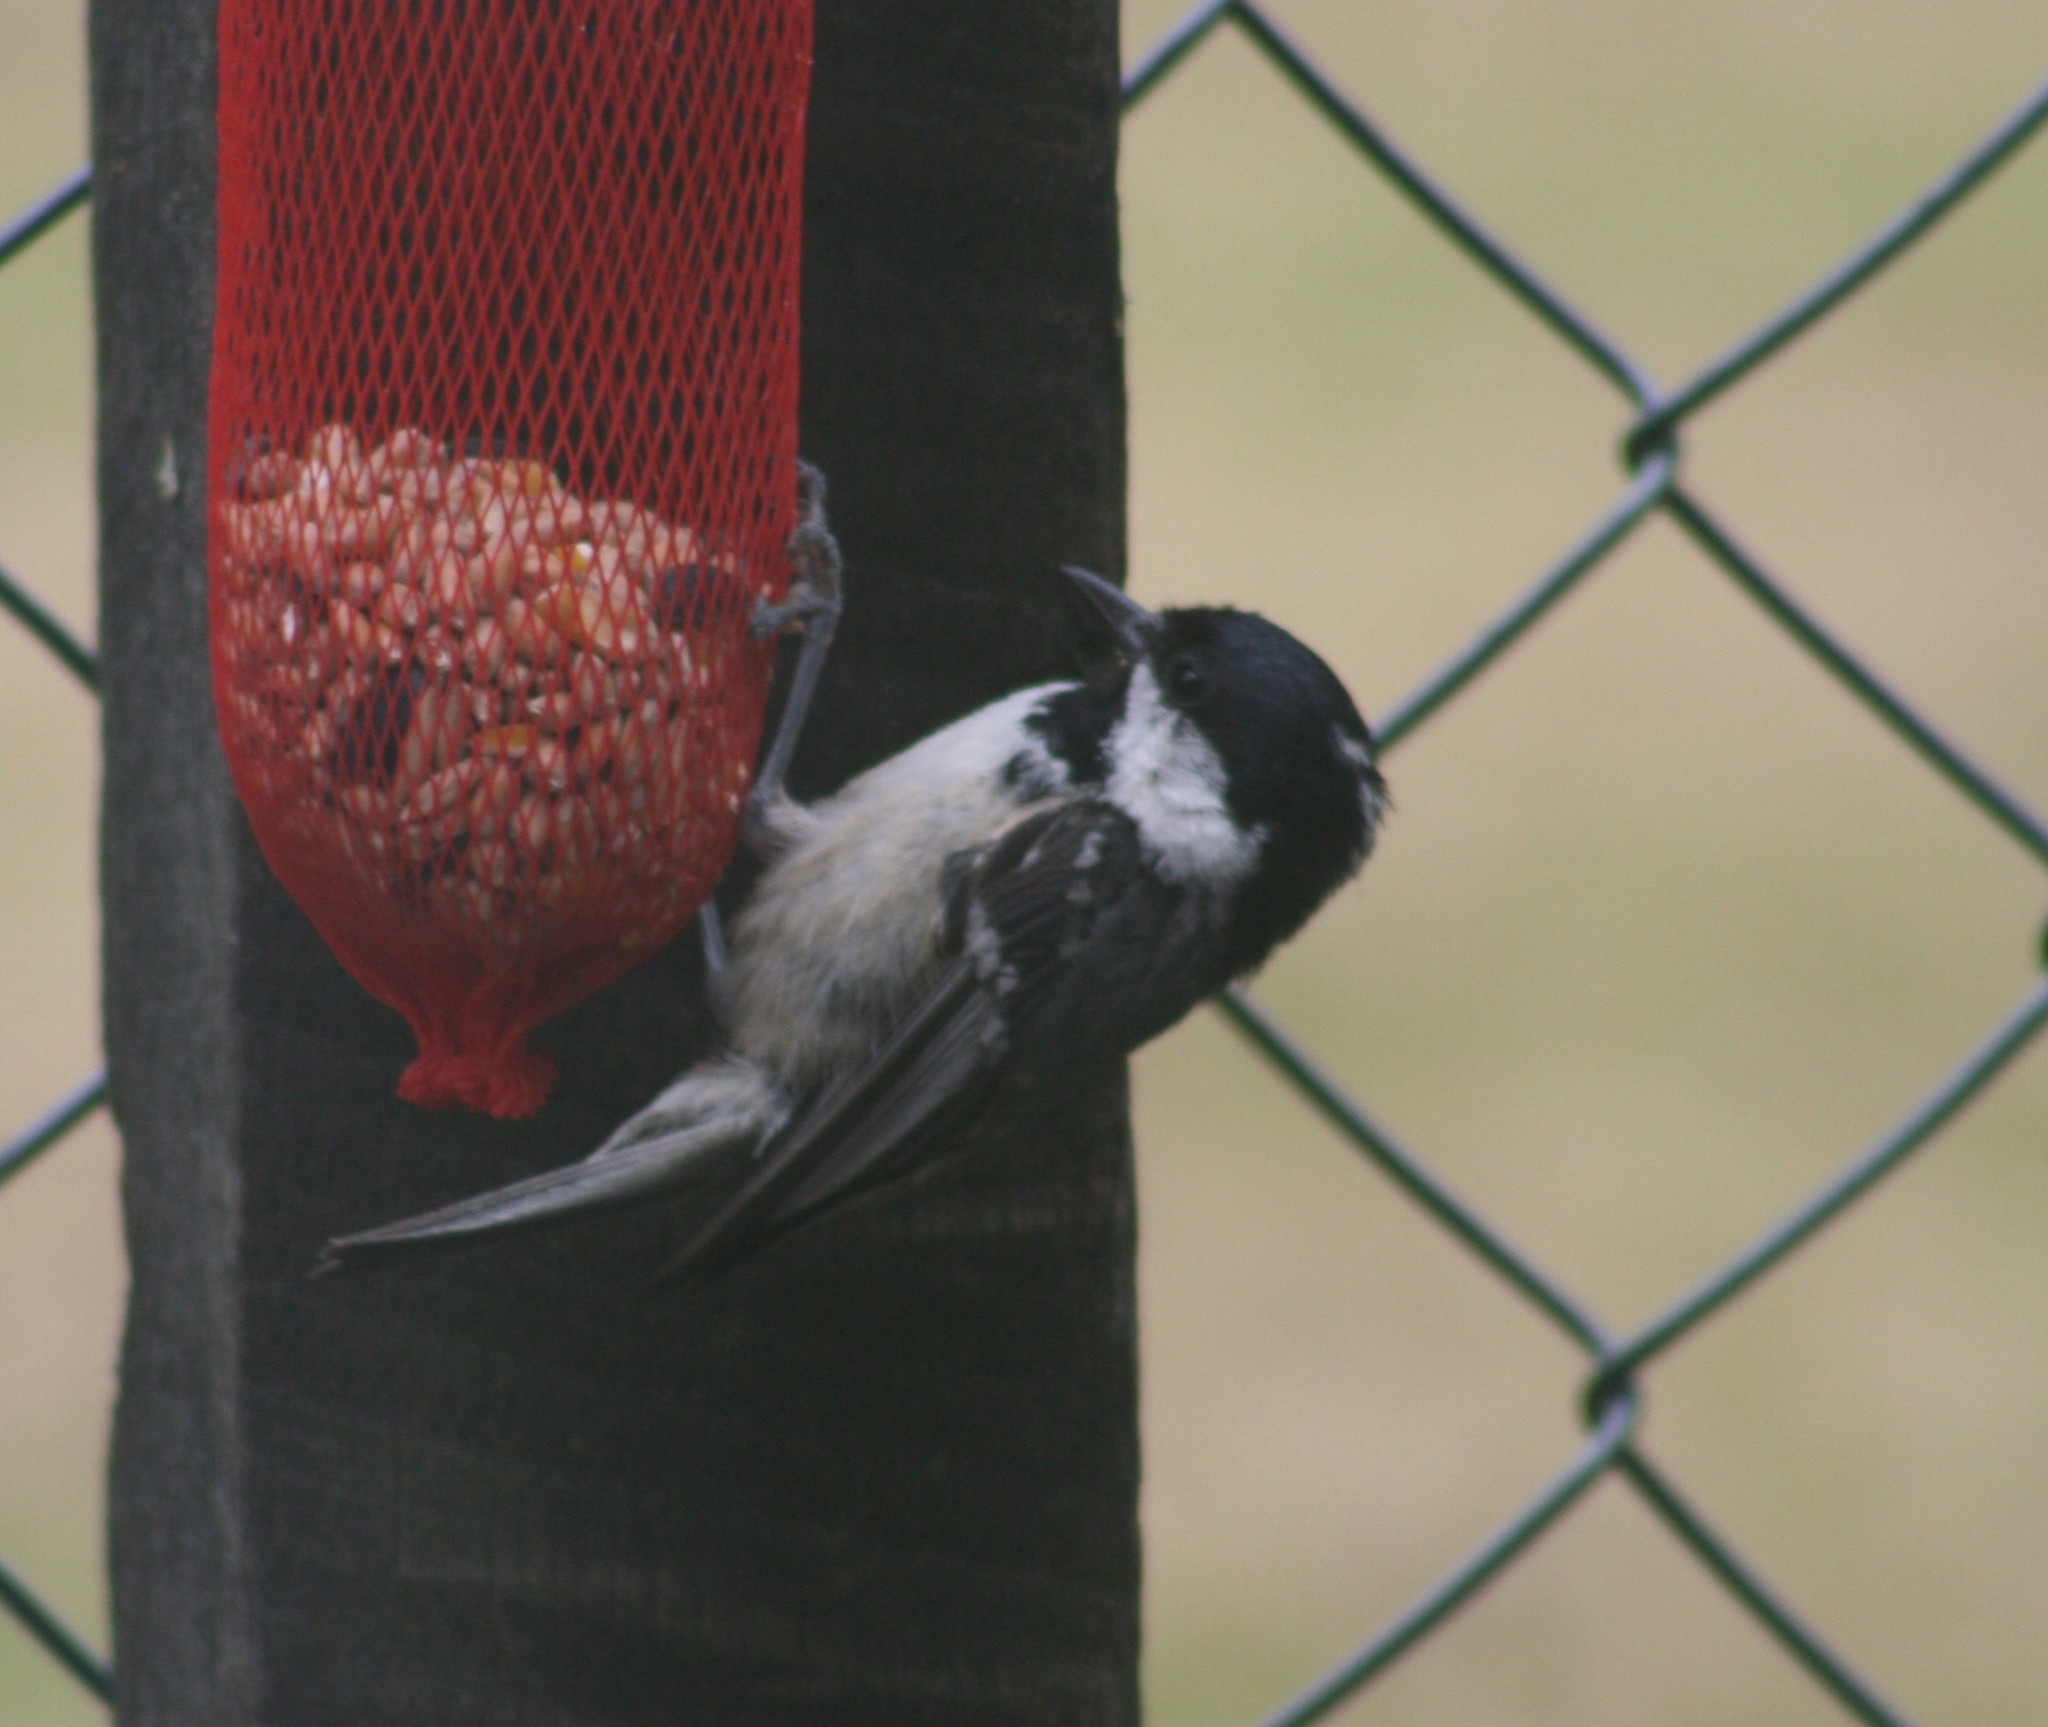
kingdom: Animalia
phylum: Chordata
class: Aves
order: Passeriformes
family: Paridae
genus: Periparus
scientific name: Periparus ater
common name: Coal tit
